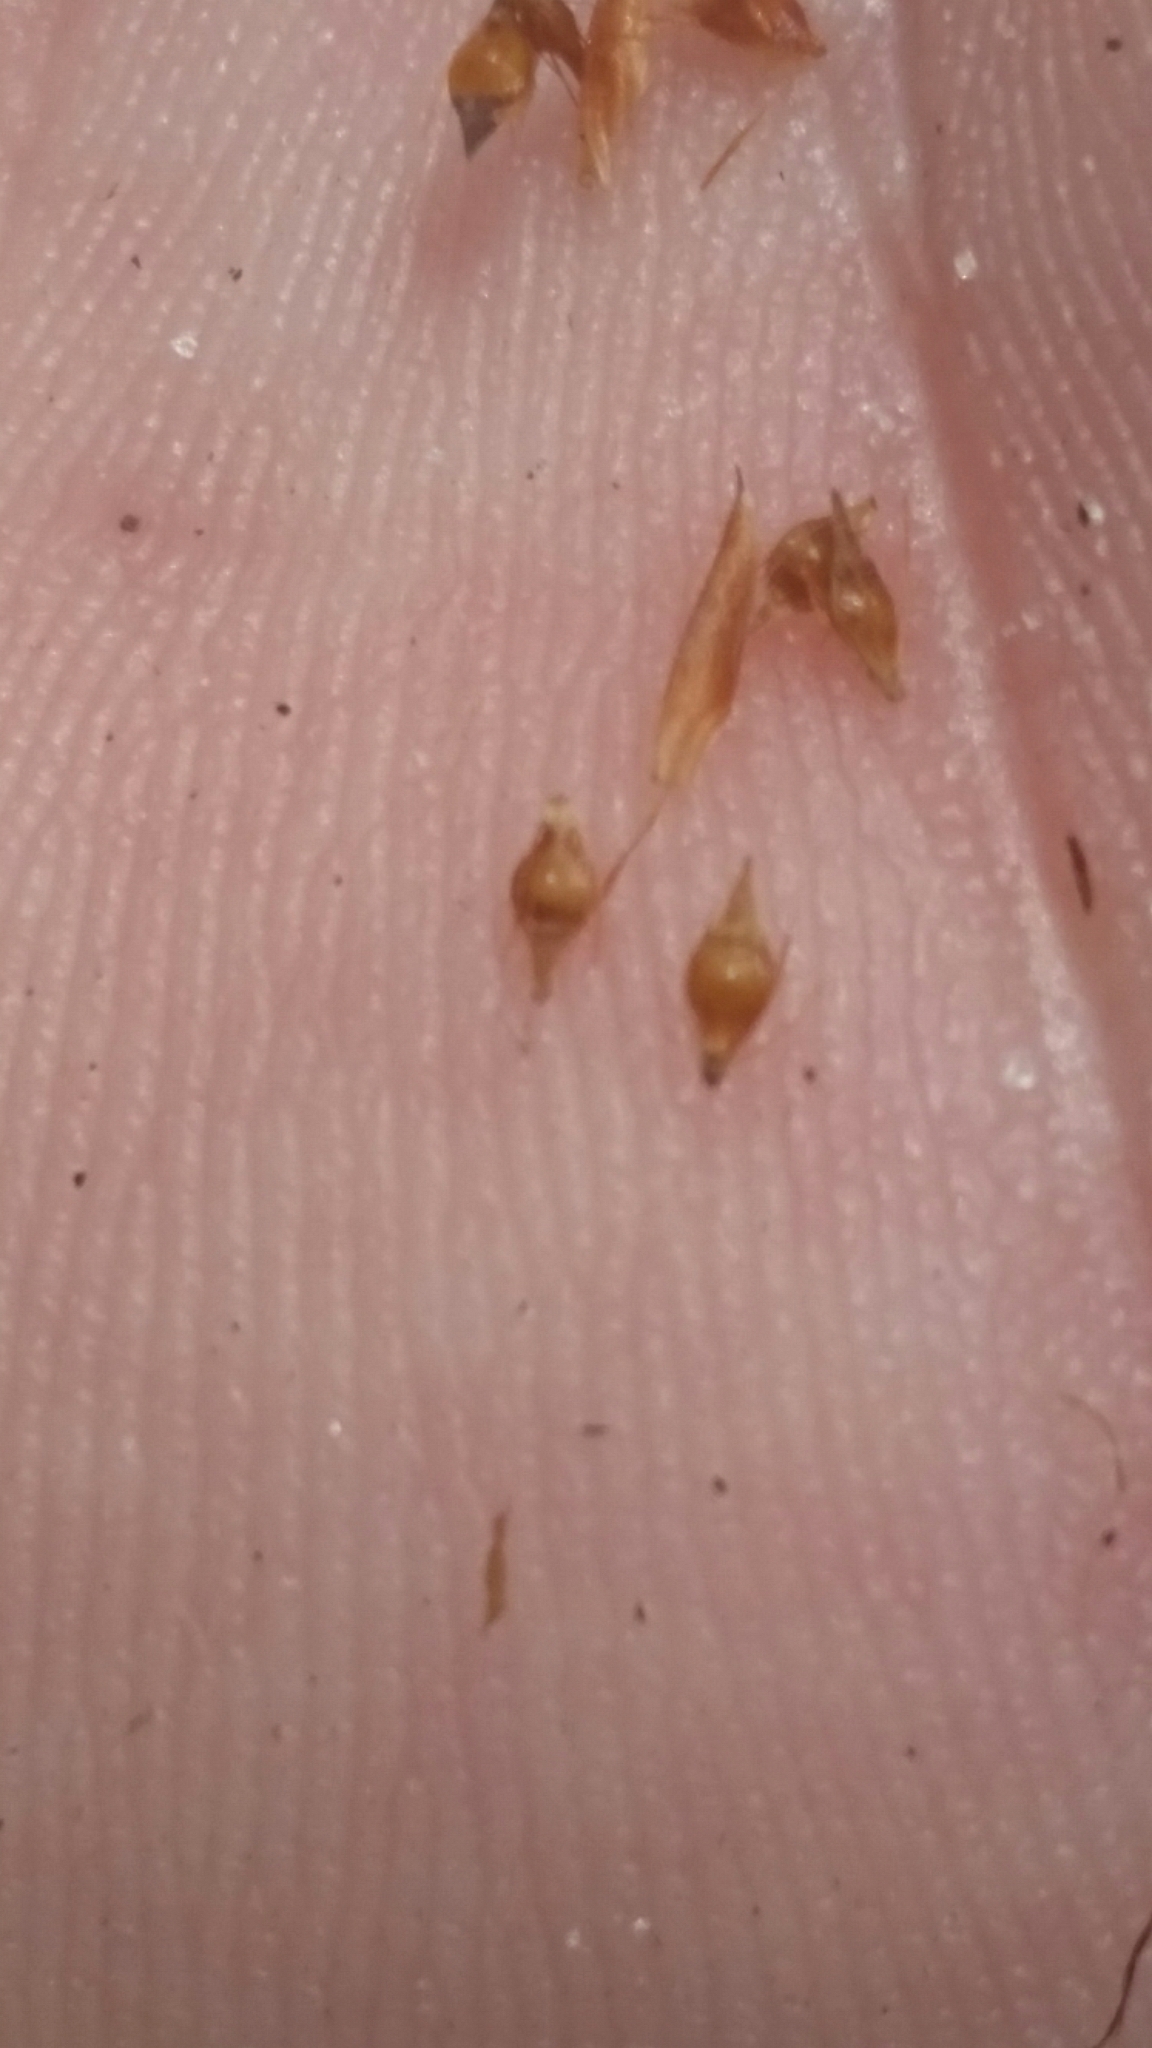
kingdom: Plantae
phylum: Tracheophyta
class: Liliopsida
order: Poales
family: Cyperaceae
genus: Rhynchospora
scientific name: Rhynchospora harperi
